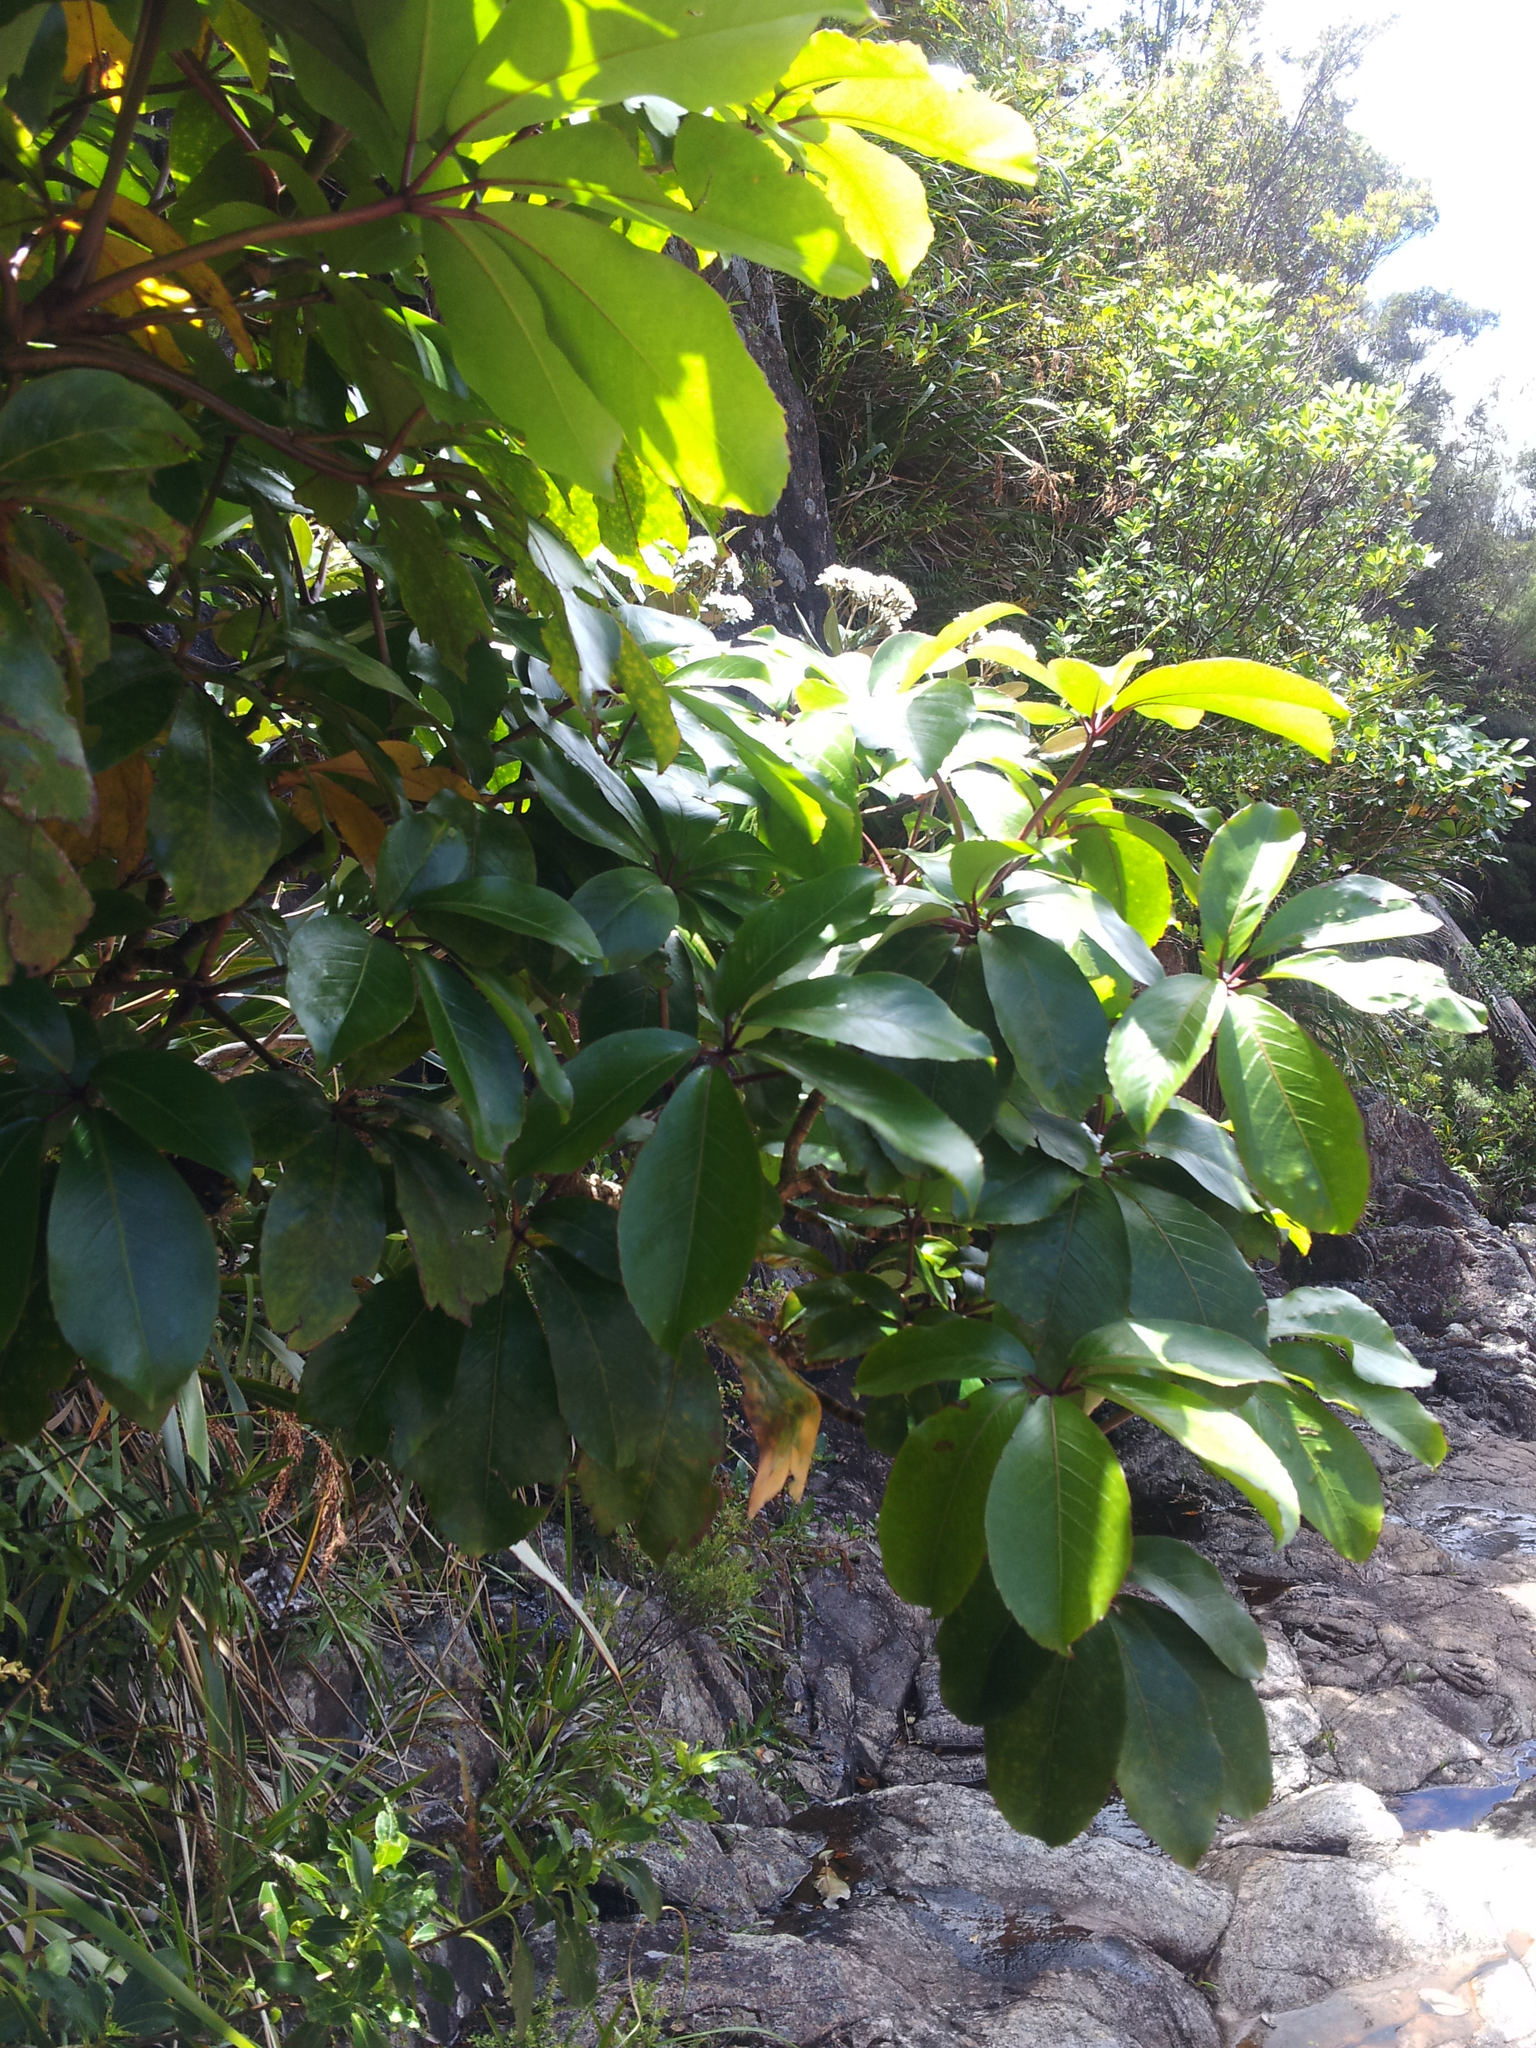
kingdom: Plantae
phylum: Tracheophyta
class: Magnoliopsida
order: Apiales
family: Araliaceae
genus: Neopanax
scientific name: Neopanax laetus
